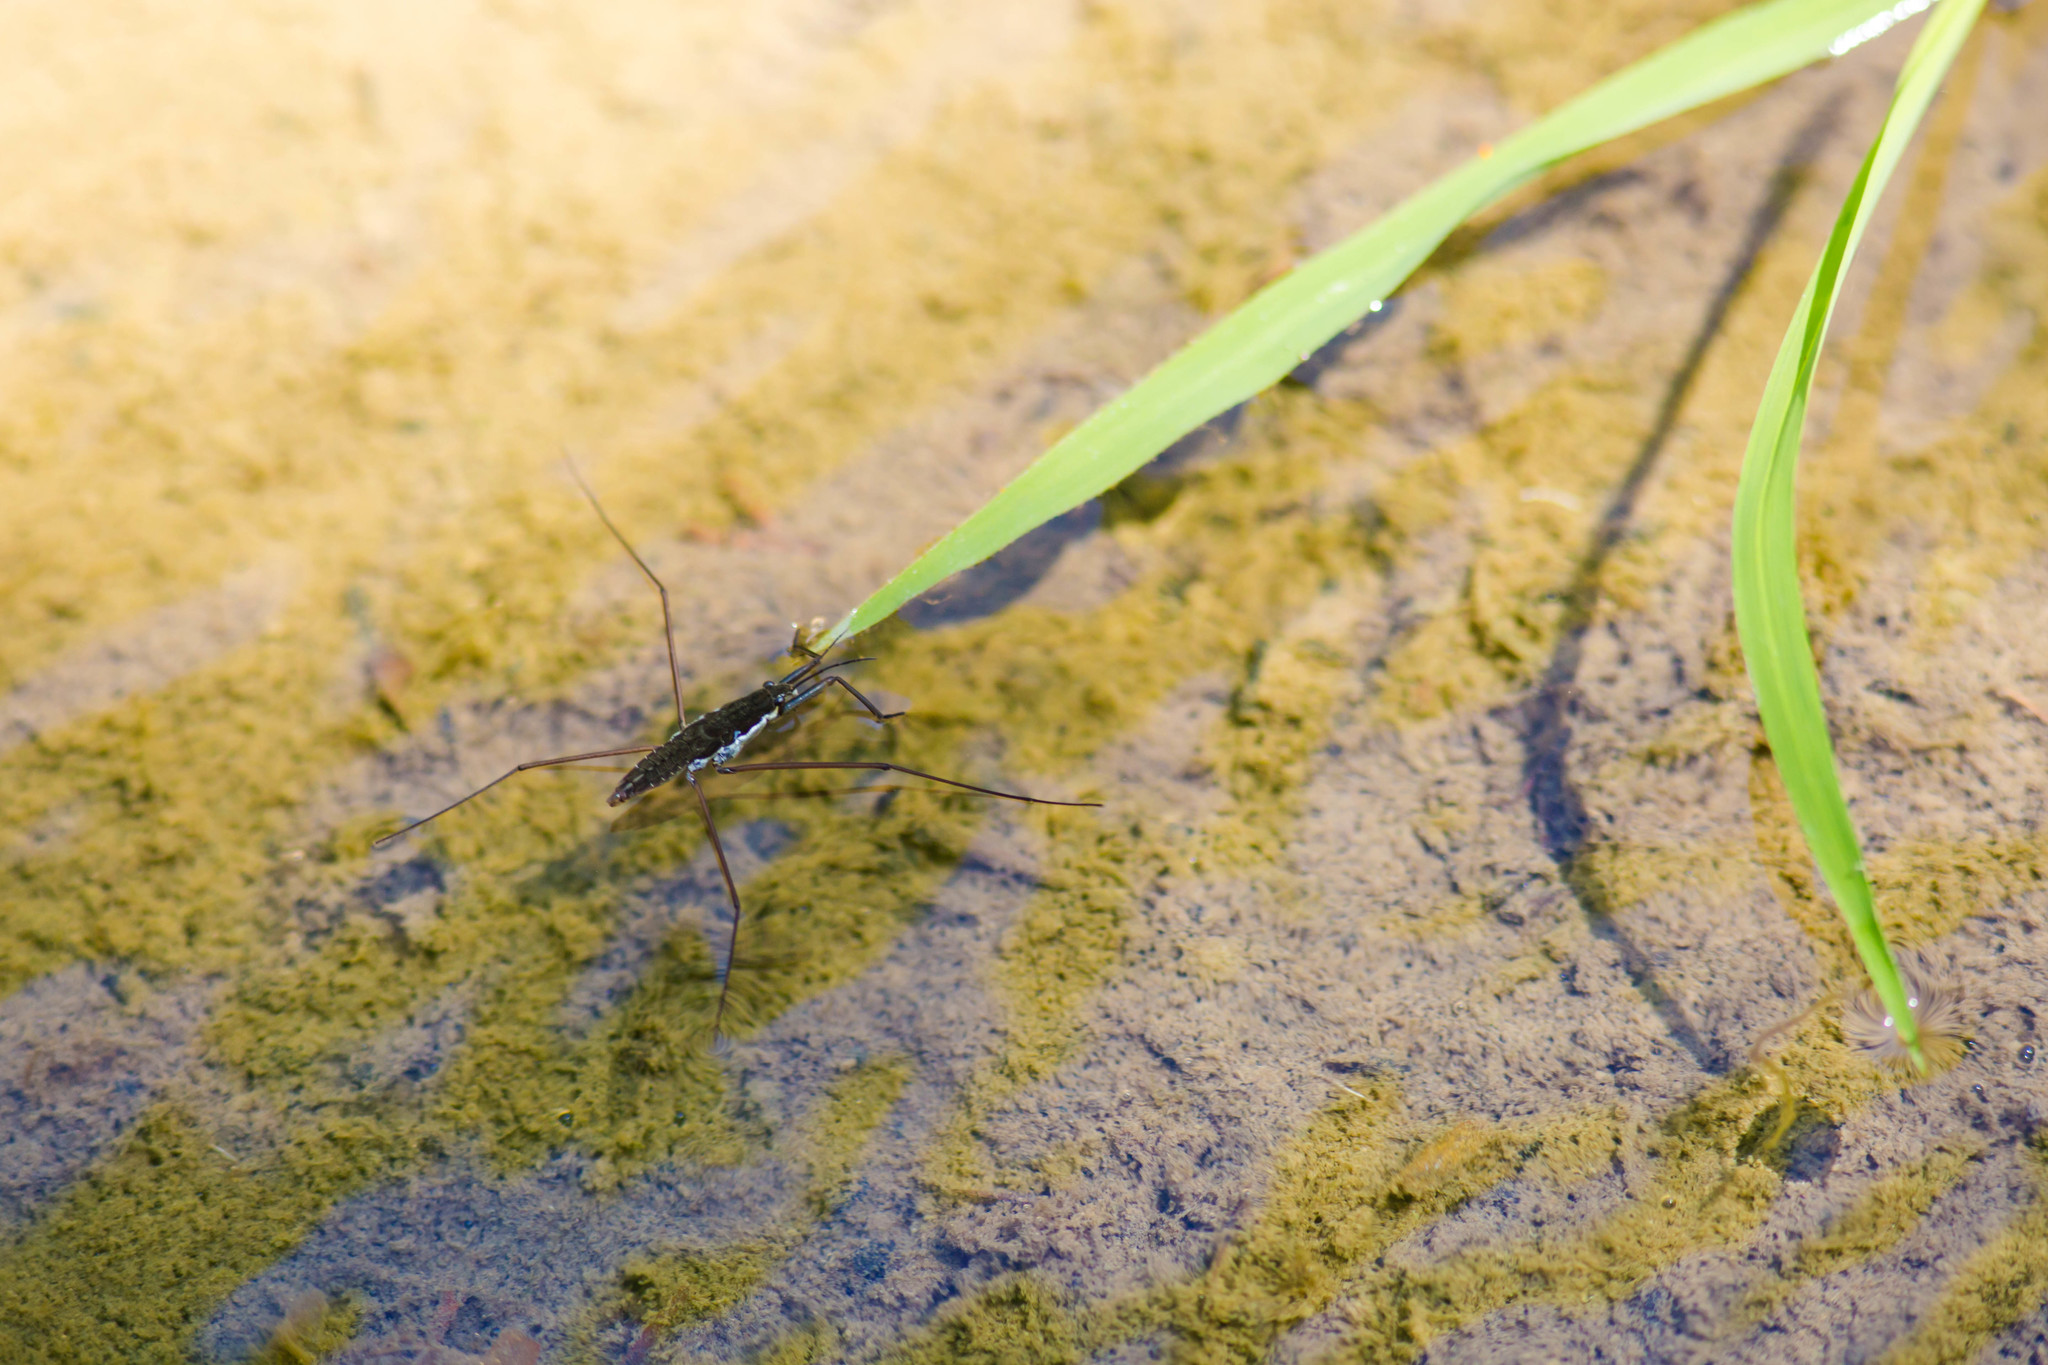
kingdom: Animalia
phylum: Arthropoda
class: Insecta
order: Hemiptera
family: Gerridae
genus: Aquarius
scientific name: Aquarius
